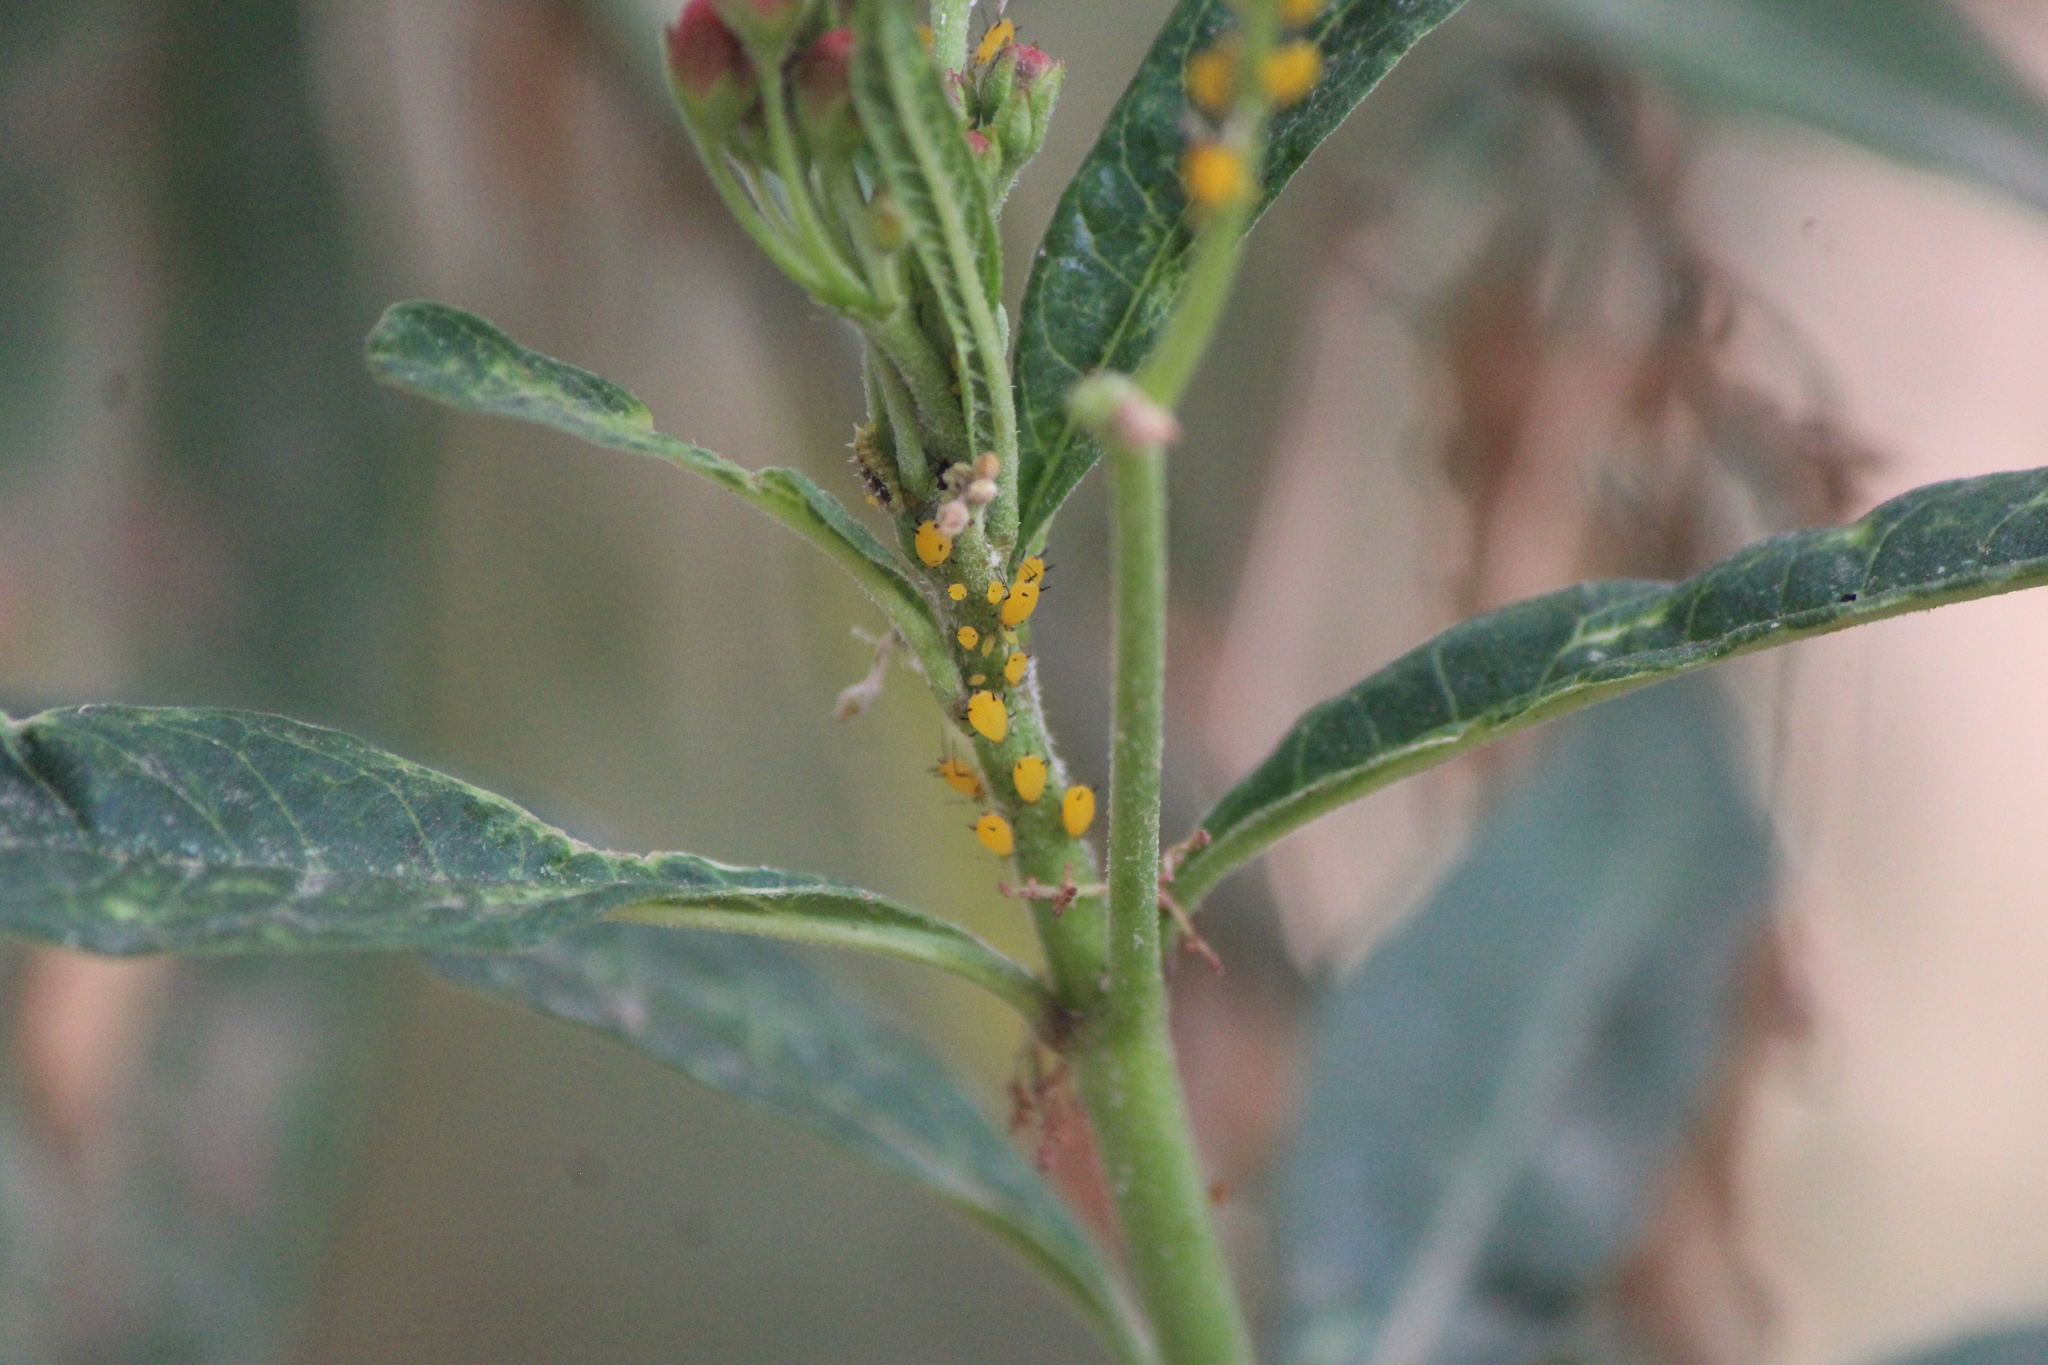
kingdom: Animalia
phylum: Arthropoda
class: Insecta
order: Hemiptera
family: Aphididae
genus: Aphis
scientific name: Aphis nerii
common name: Oleander aphid
